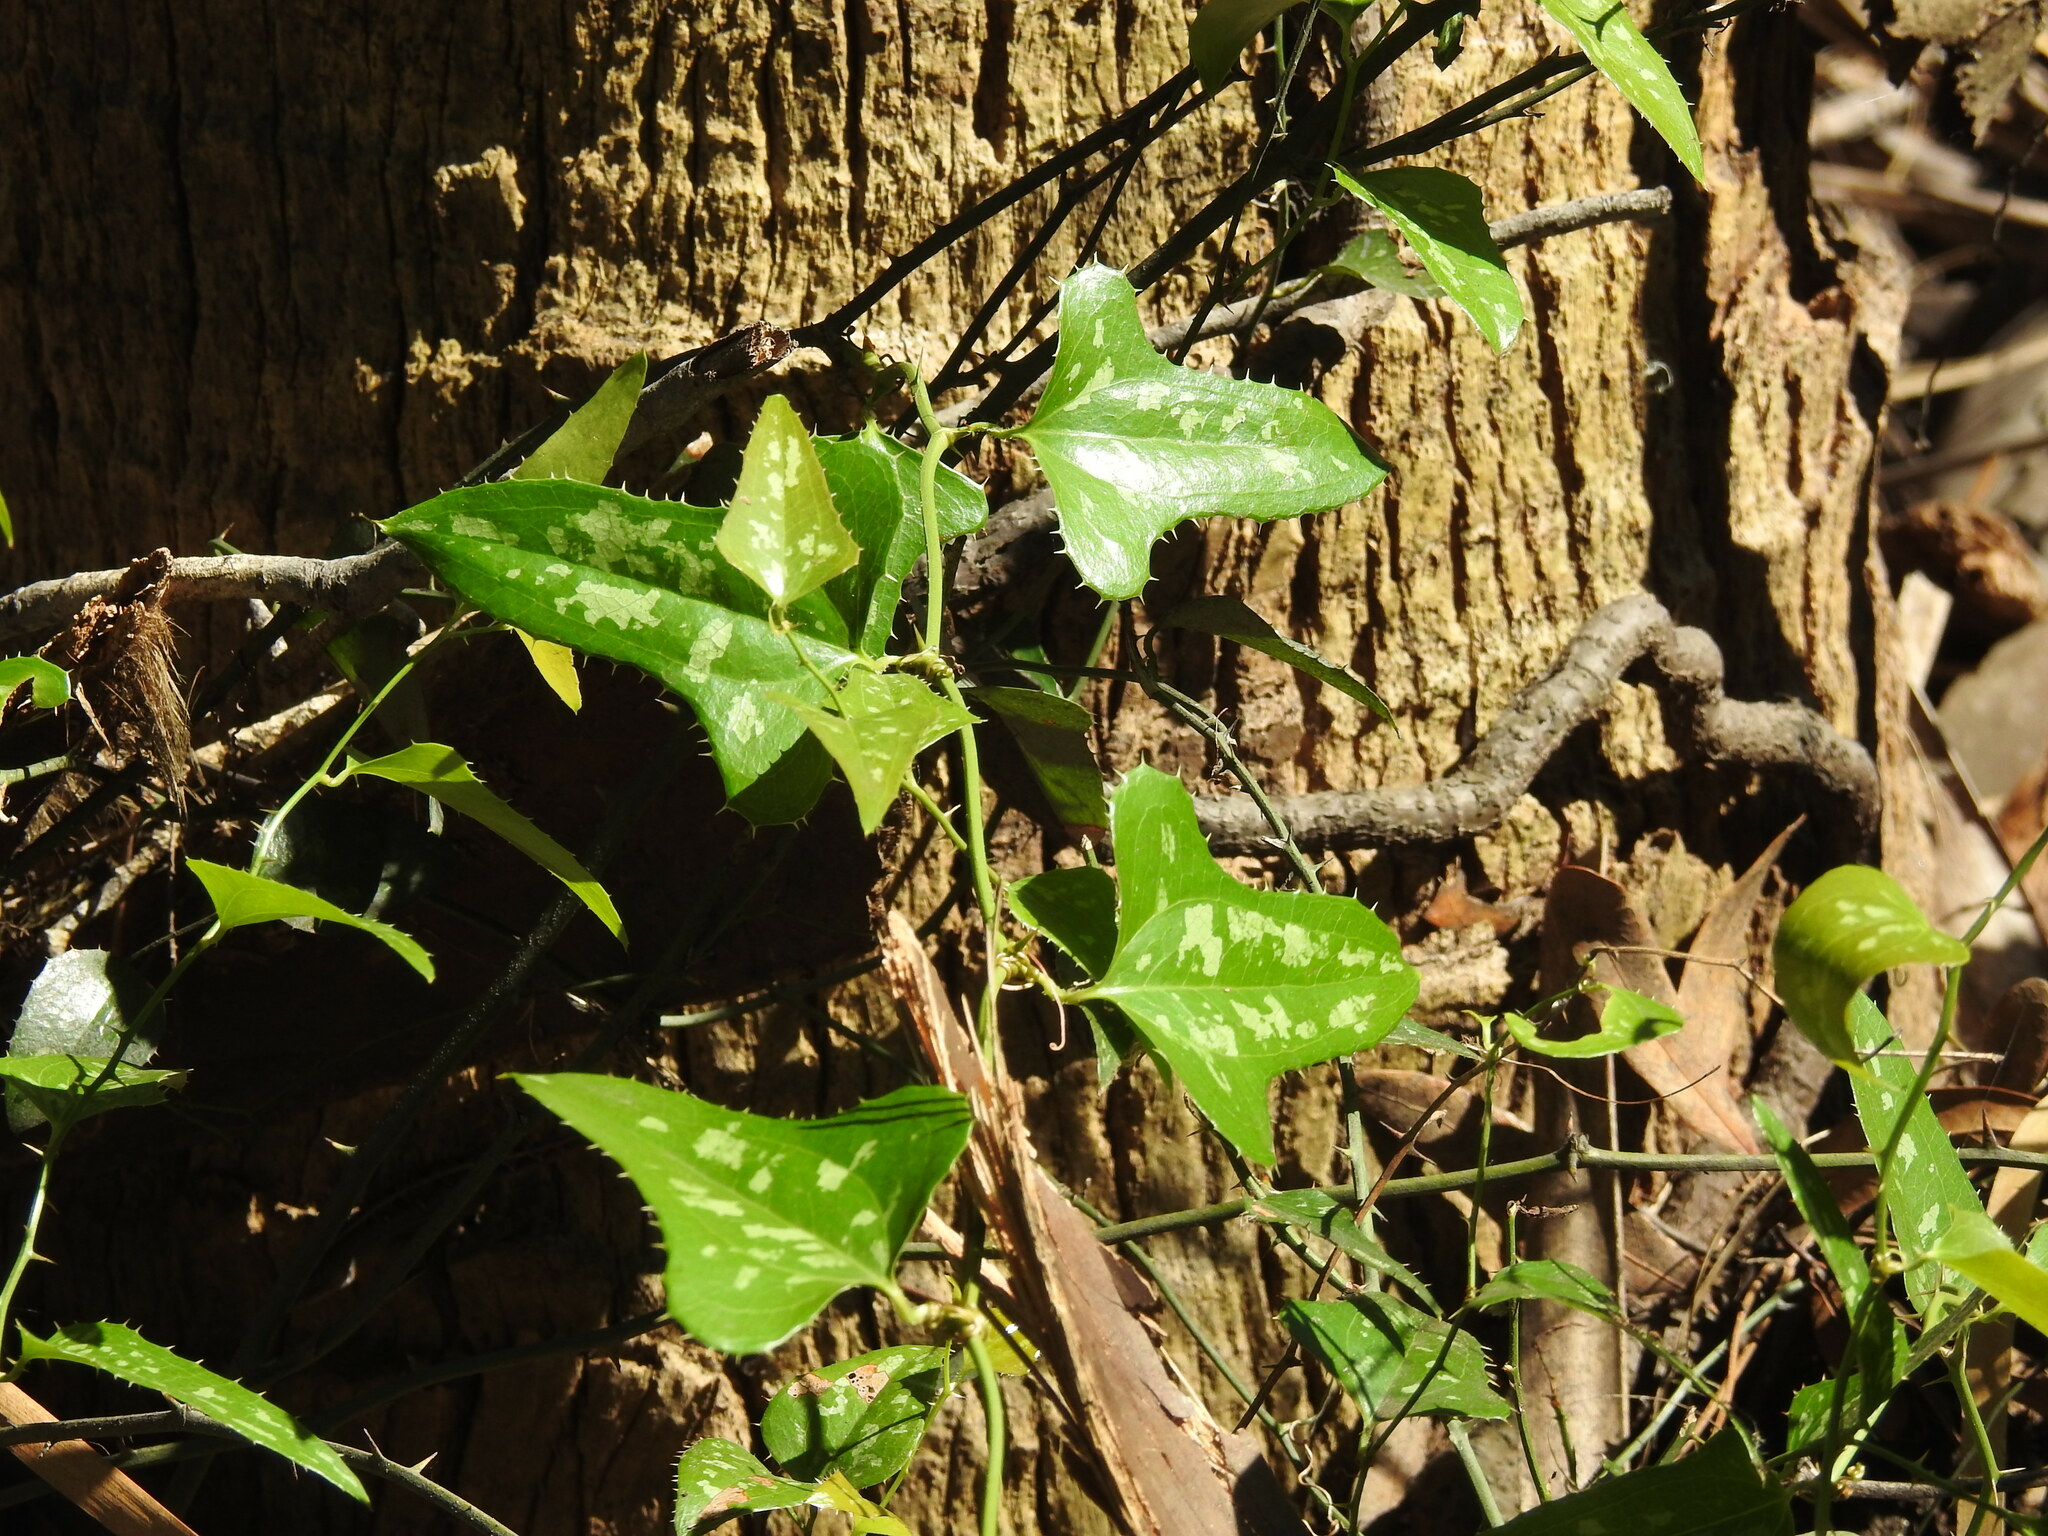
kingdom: Plantae
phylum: Tracheophyta
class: Liliopsida
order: Liliales
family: Smilacaceae
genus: Smilax
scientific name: Smilax bona-nox
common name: Catbrier
